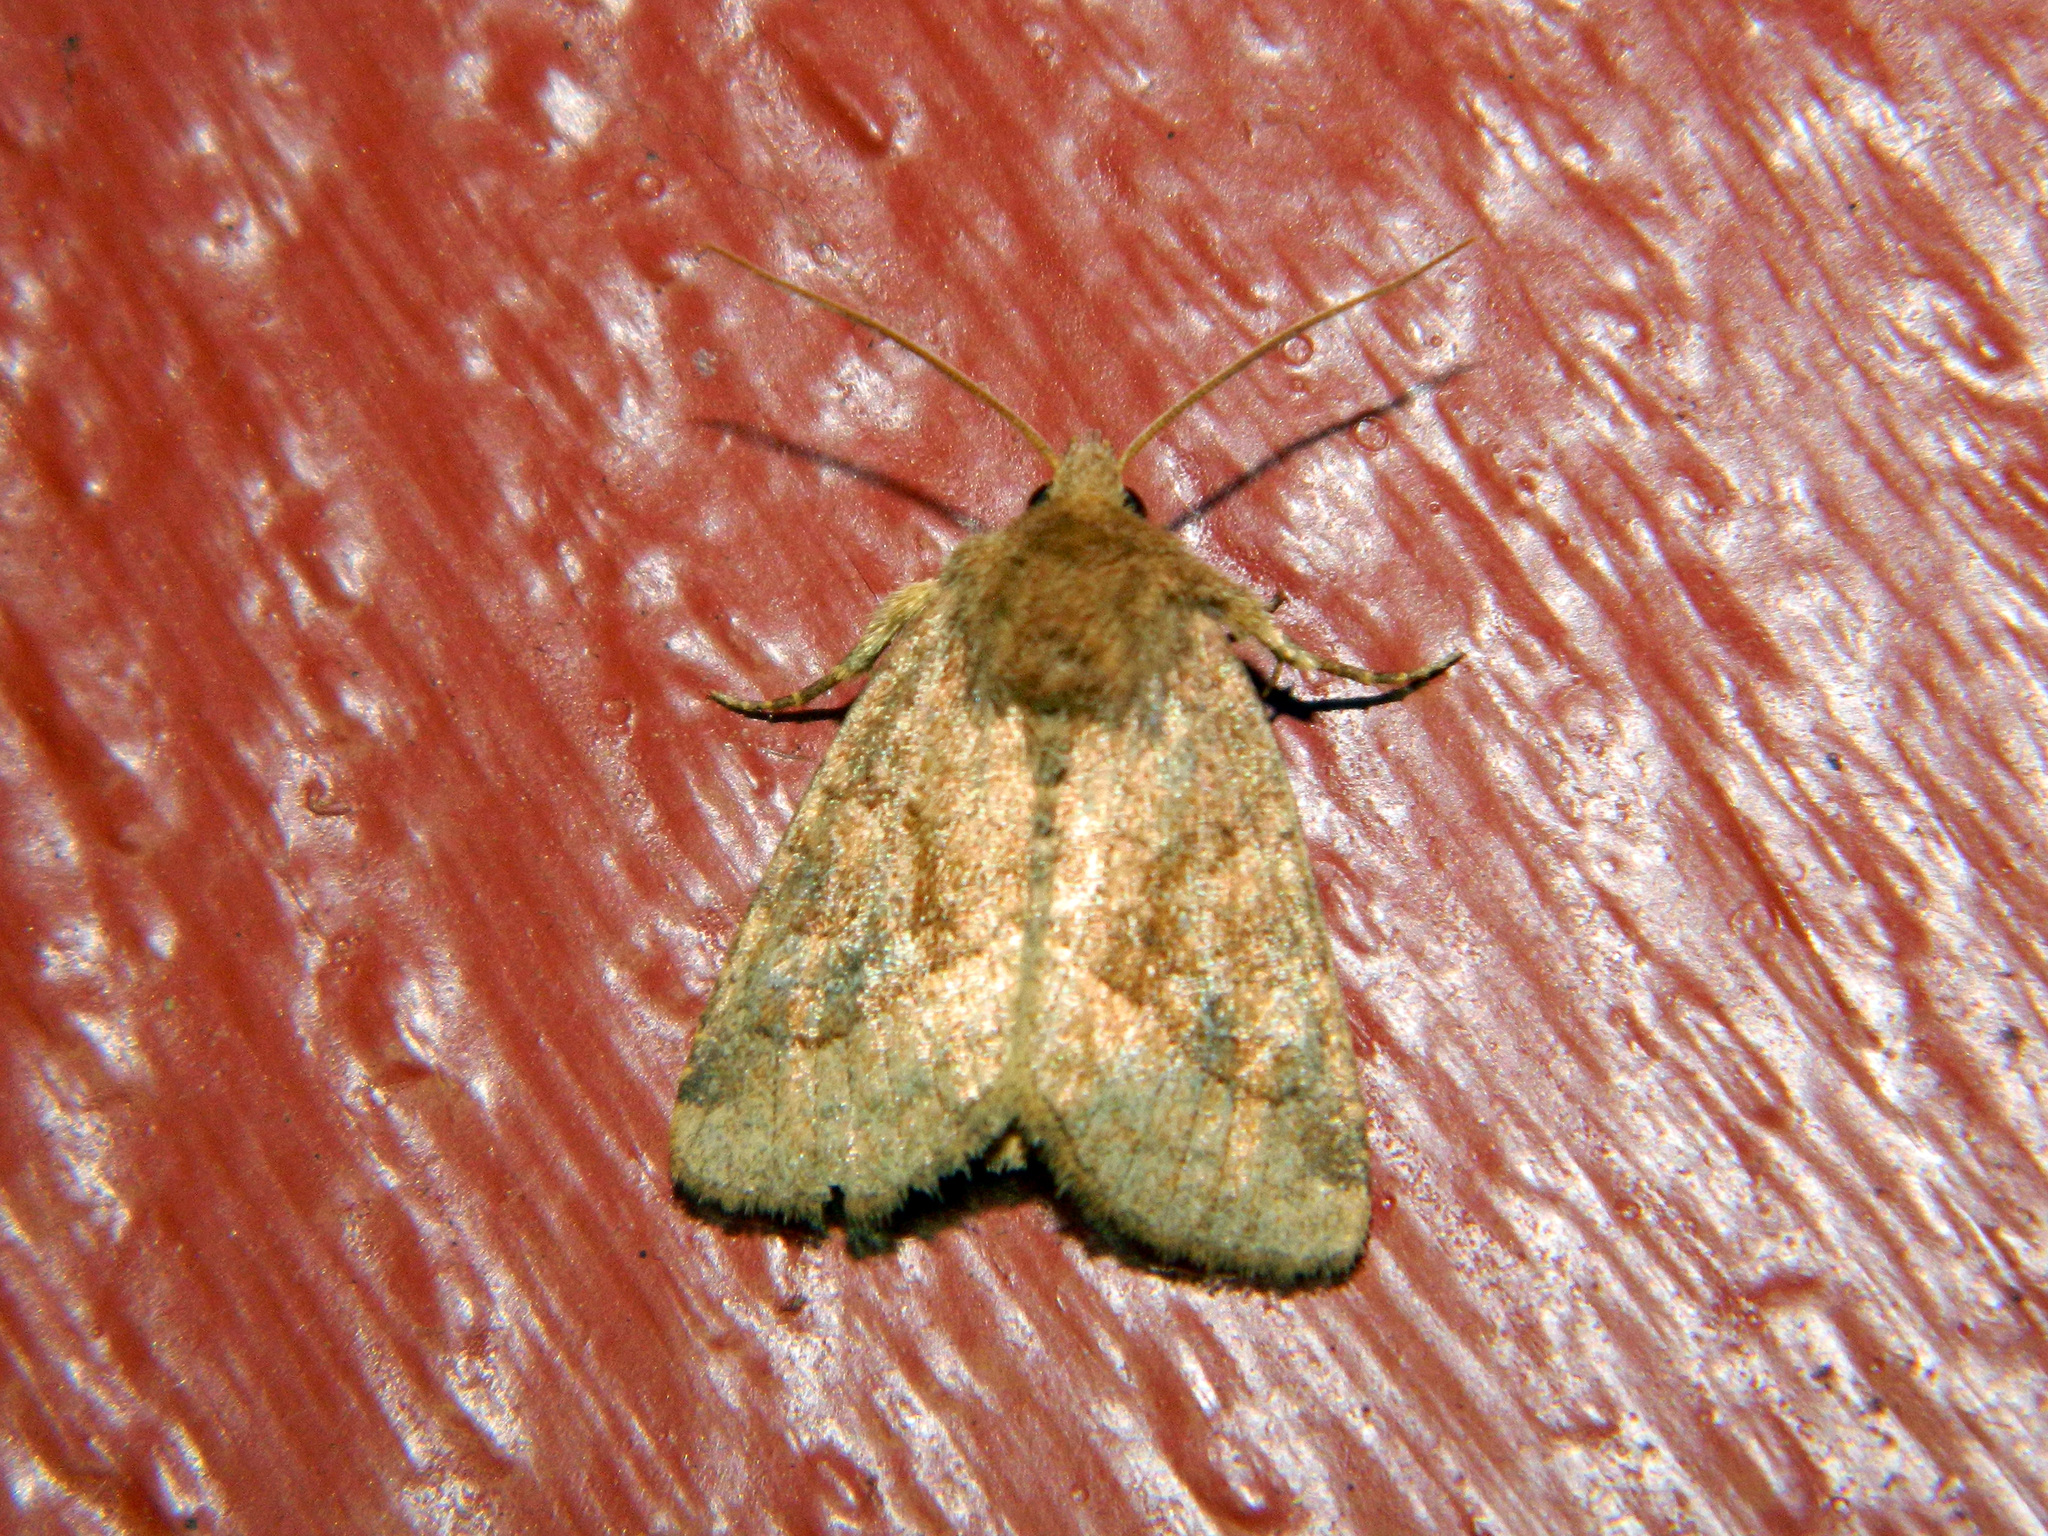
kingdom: Animalia
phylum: Arthropoda
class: Insecta
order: Lepidoptera
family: Noctuidae
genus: Lacinipolia
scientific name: Lacinipolia lorea
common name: Bridled arches moth
